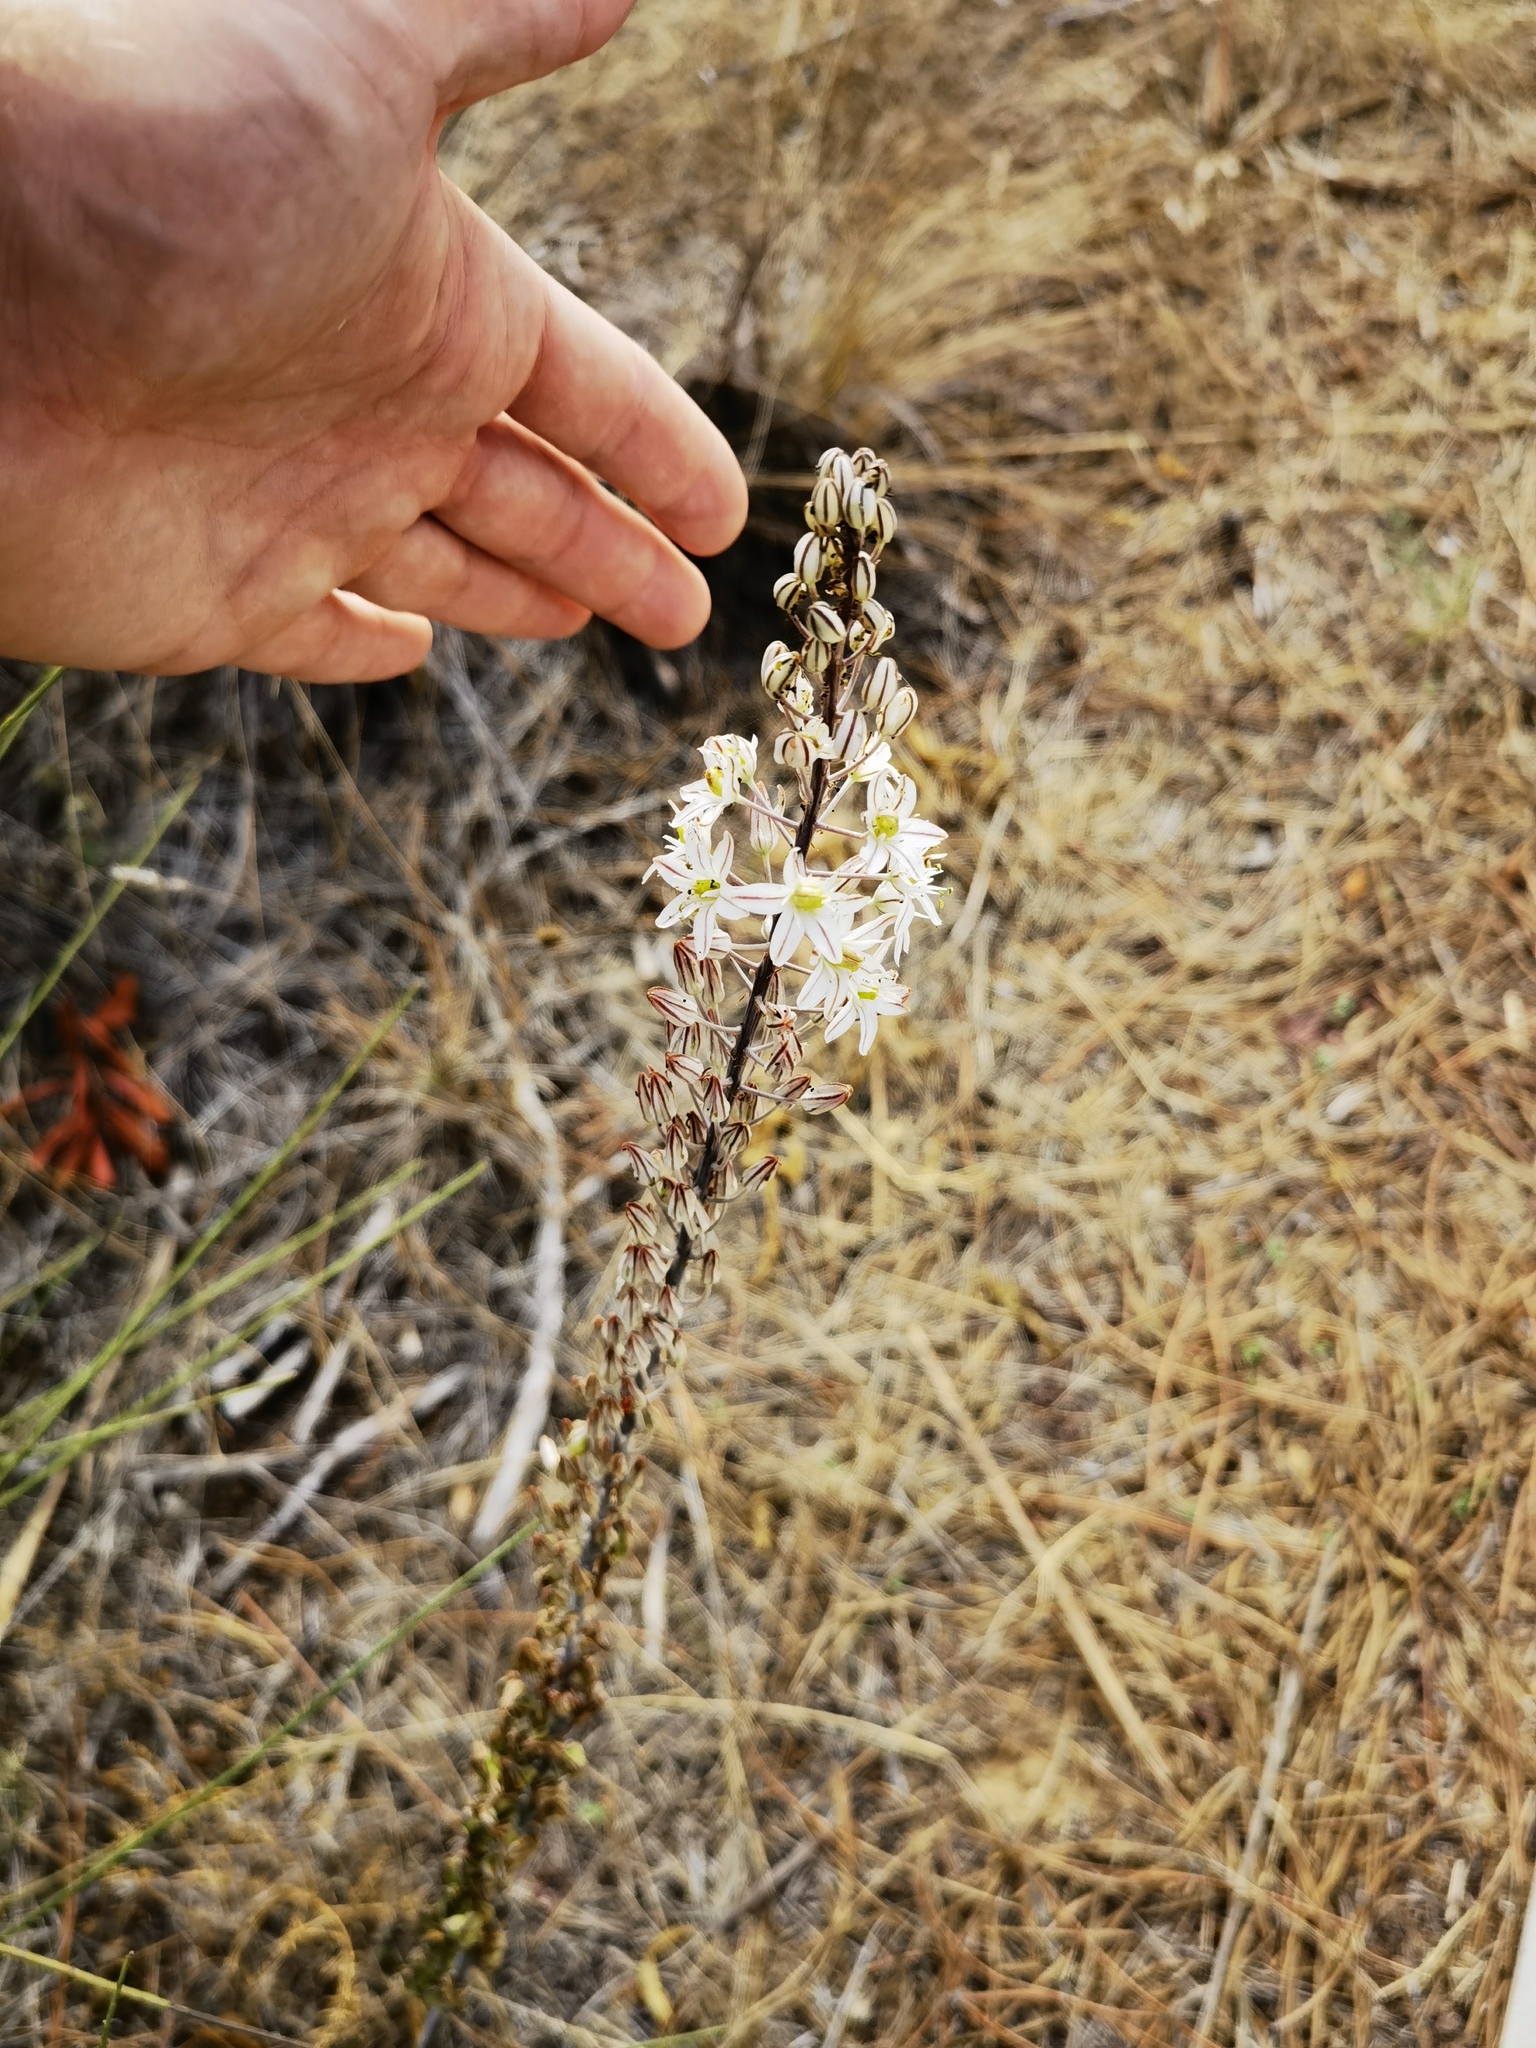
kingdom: Plantae
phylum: Tracheophyta
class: Liliopsida
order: Asparagales
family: Asparagaceae
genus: Drimia
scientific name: Drimia maritima
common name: Maritime squill
